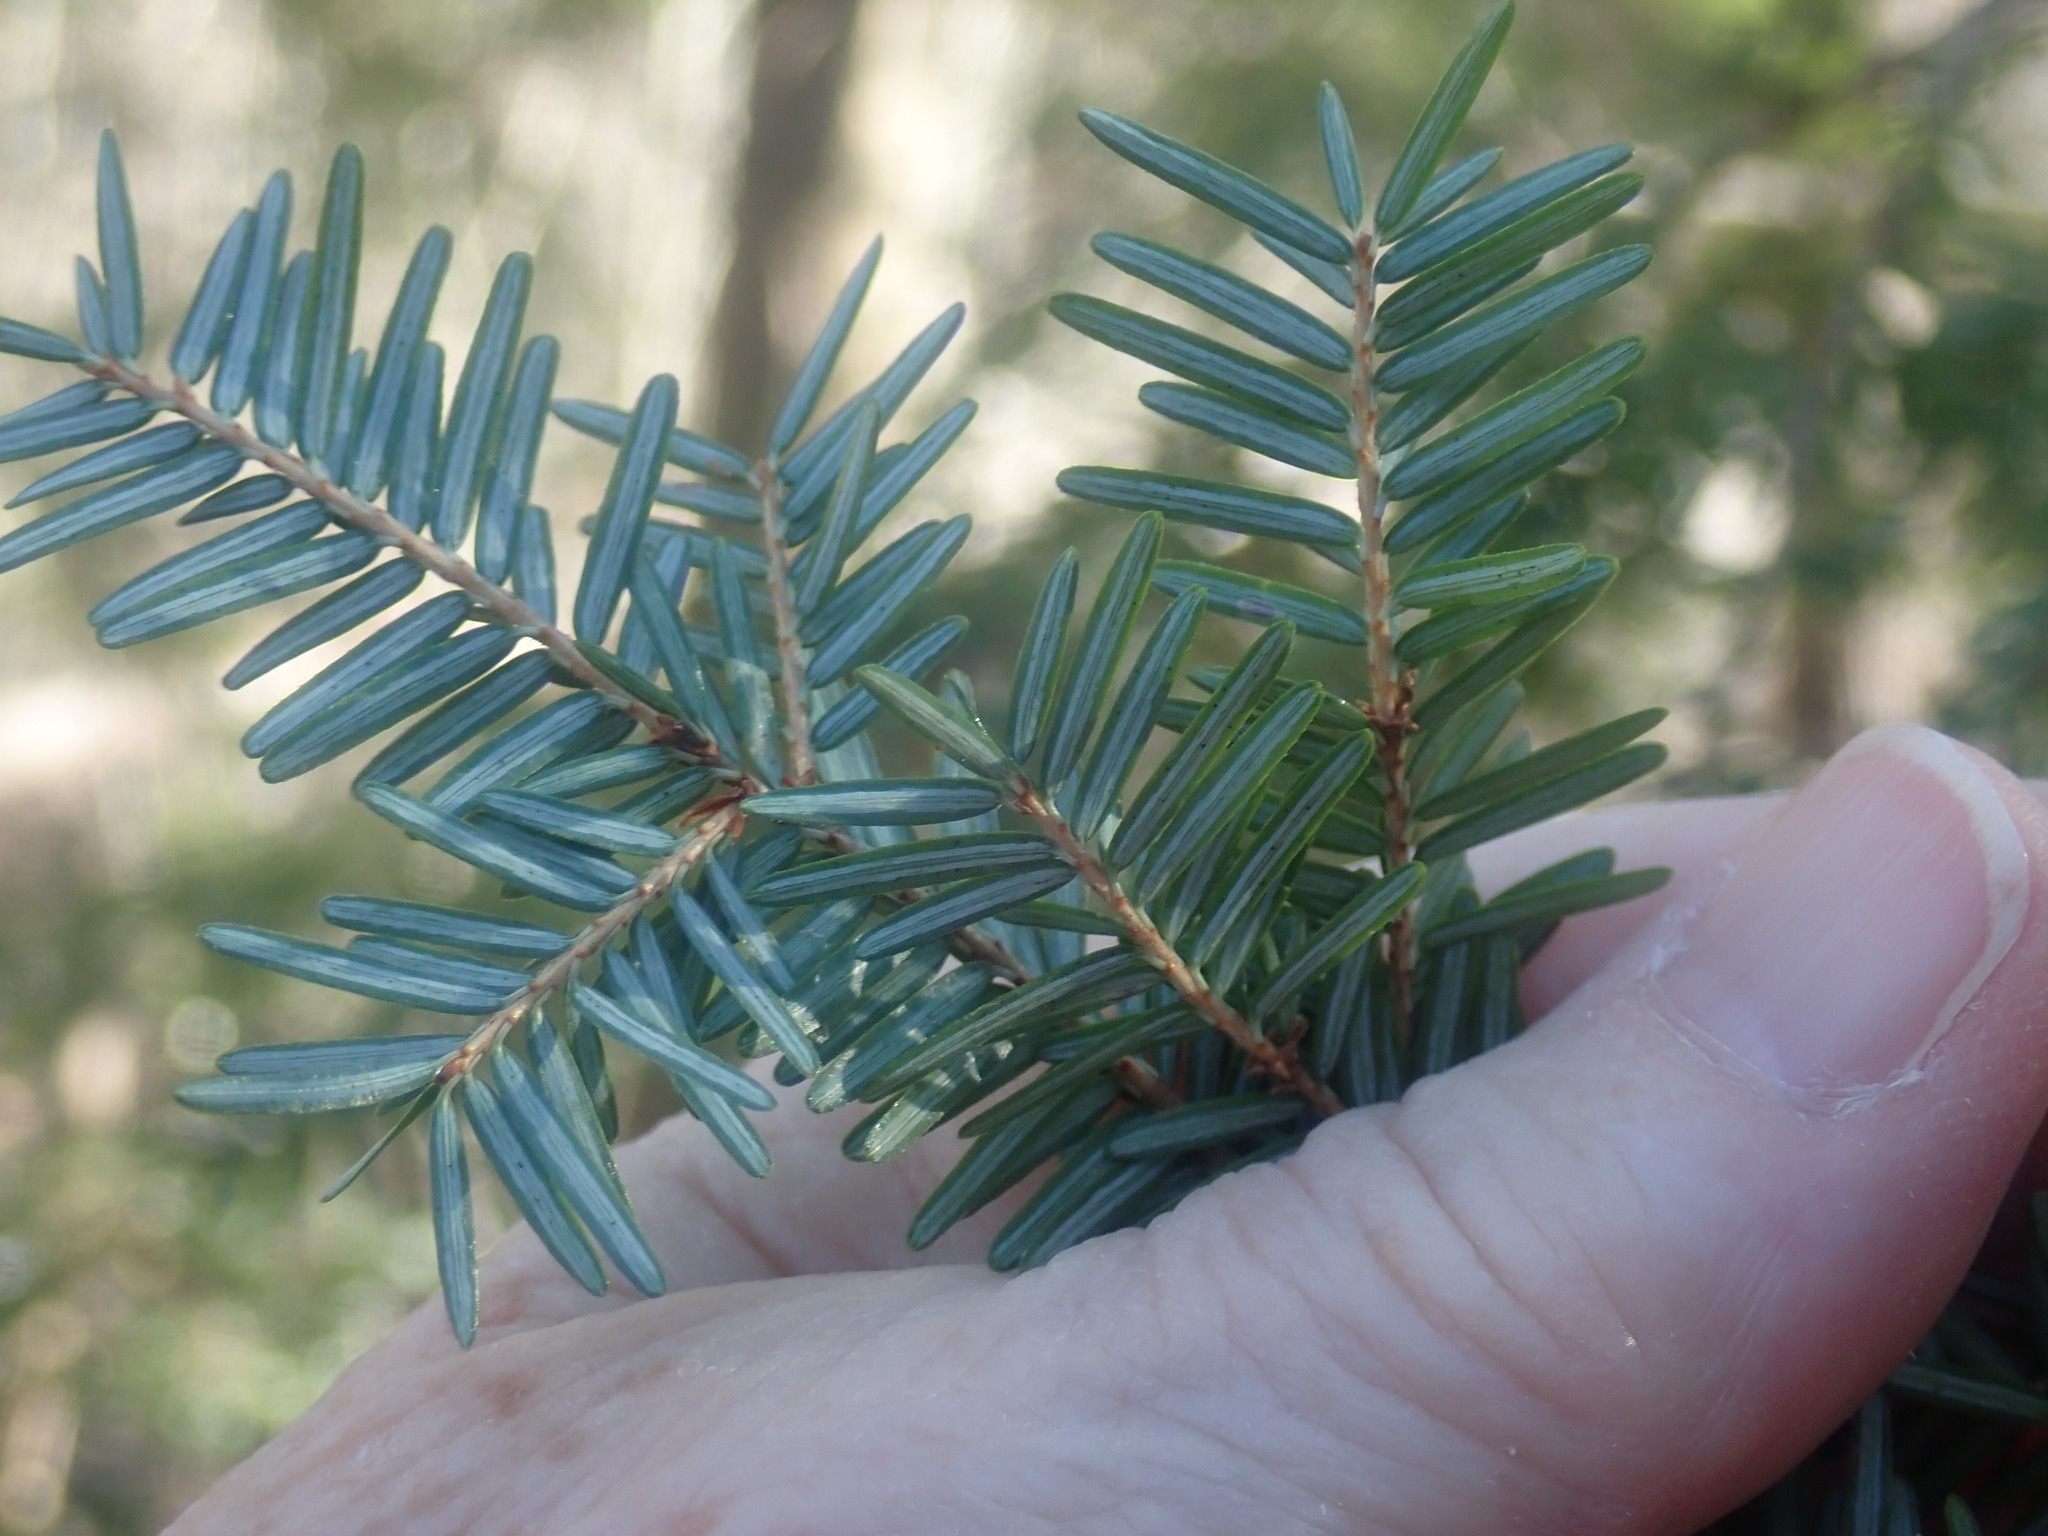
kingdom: Plantae
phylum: Tracheophyta
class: Pinopsida
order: Pinales
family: Pinaceae
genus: Tsuga
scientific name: Tsuga canadensis
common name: Eastern hemlock
